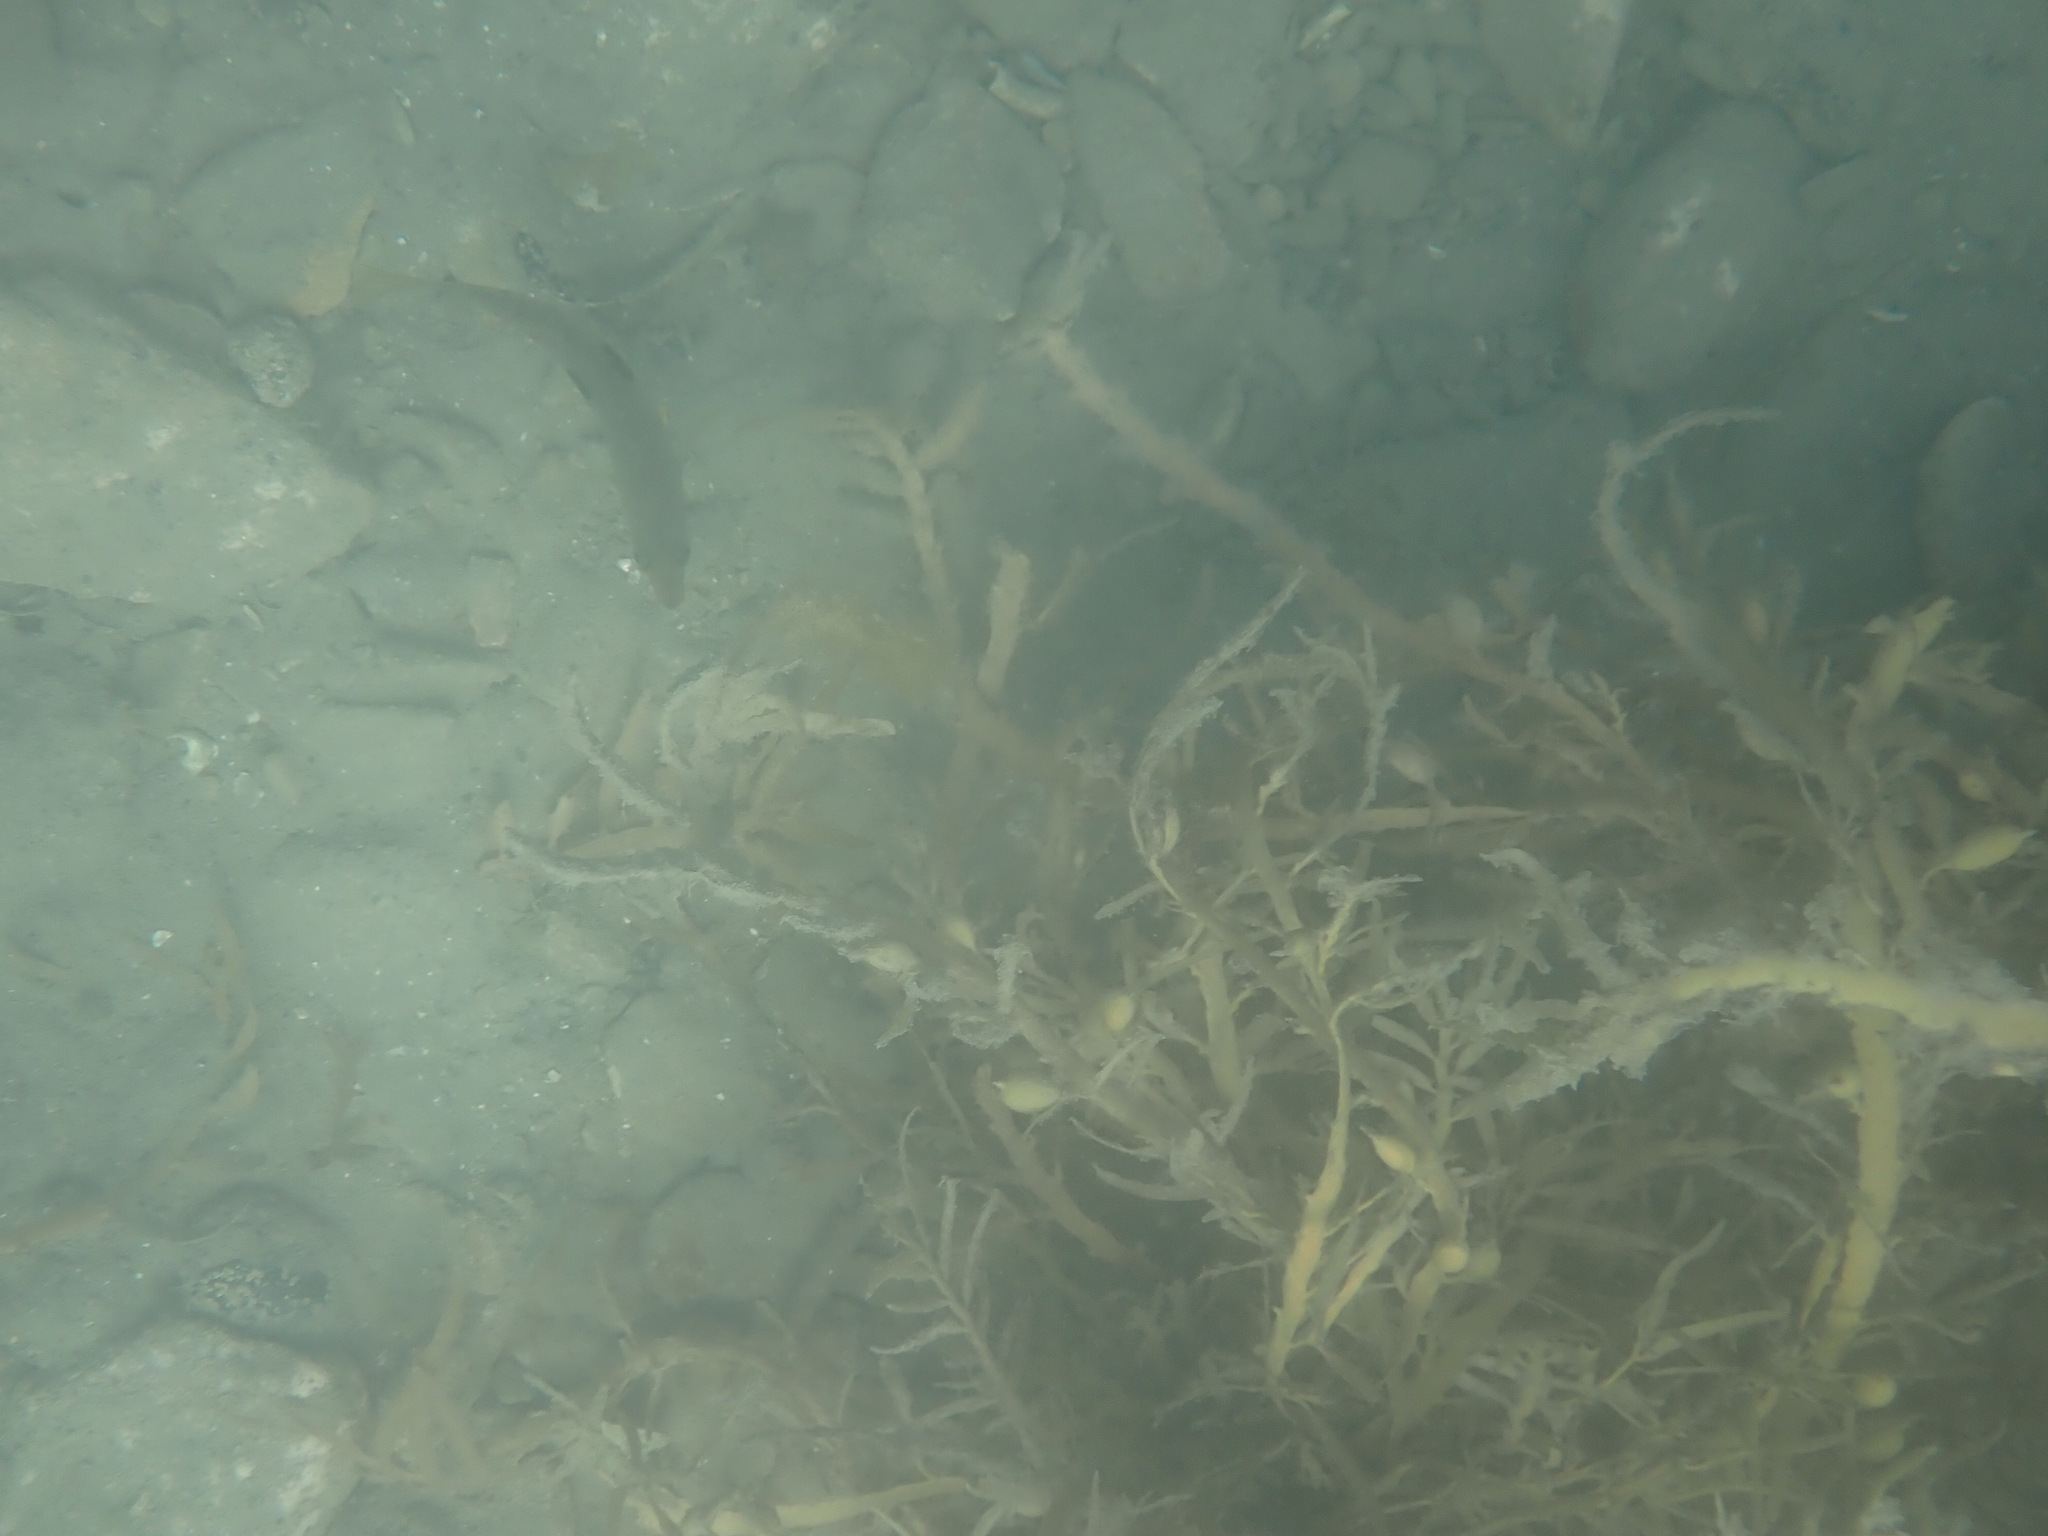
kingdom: Animalia
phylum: Chordata
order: Perciformes
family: Labridae
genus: Notolabrus
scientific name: Notolabrus celidotus
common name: Spotty
